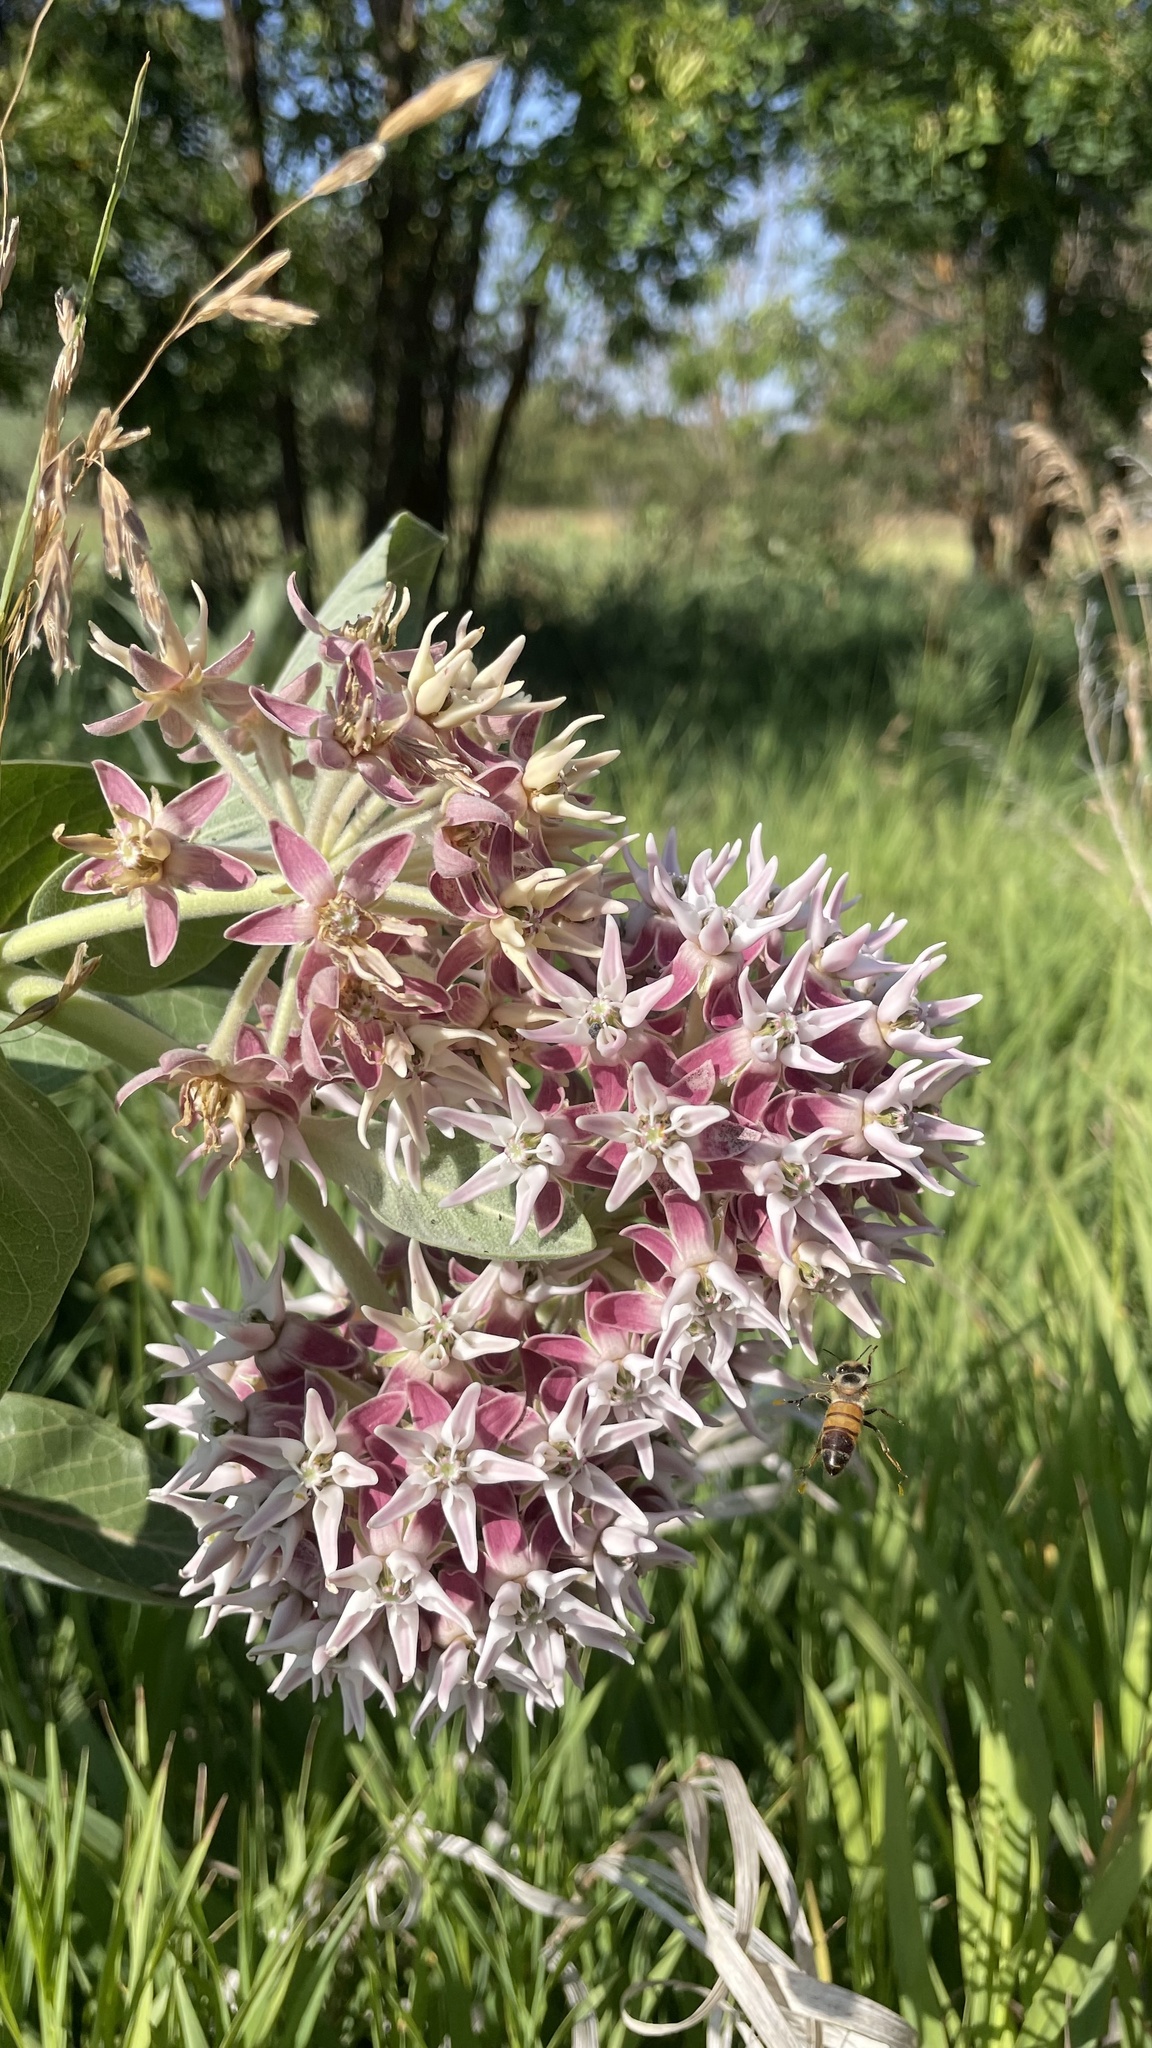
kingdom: Plantae
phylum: Tracheophyta
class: Magnoliopsida
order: Gentianales
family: Apocynaceae
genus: Asclepias
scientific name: Asclepias speciosa
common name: Showy milkweed
